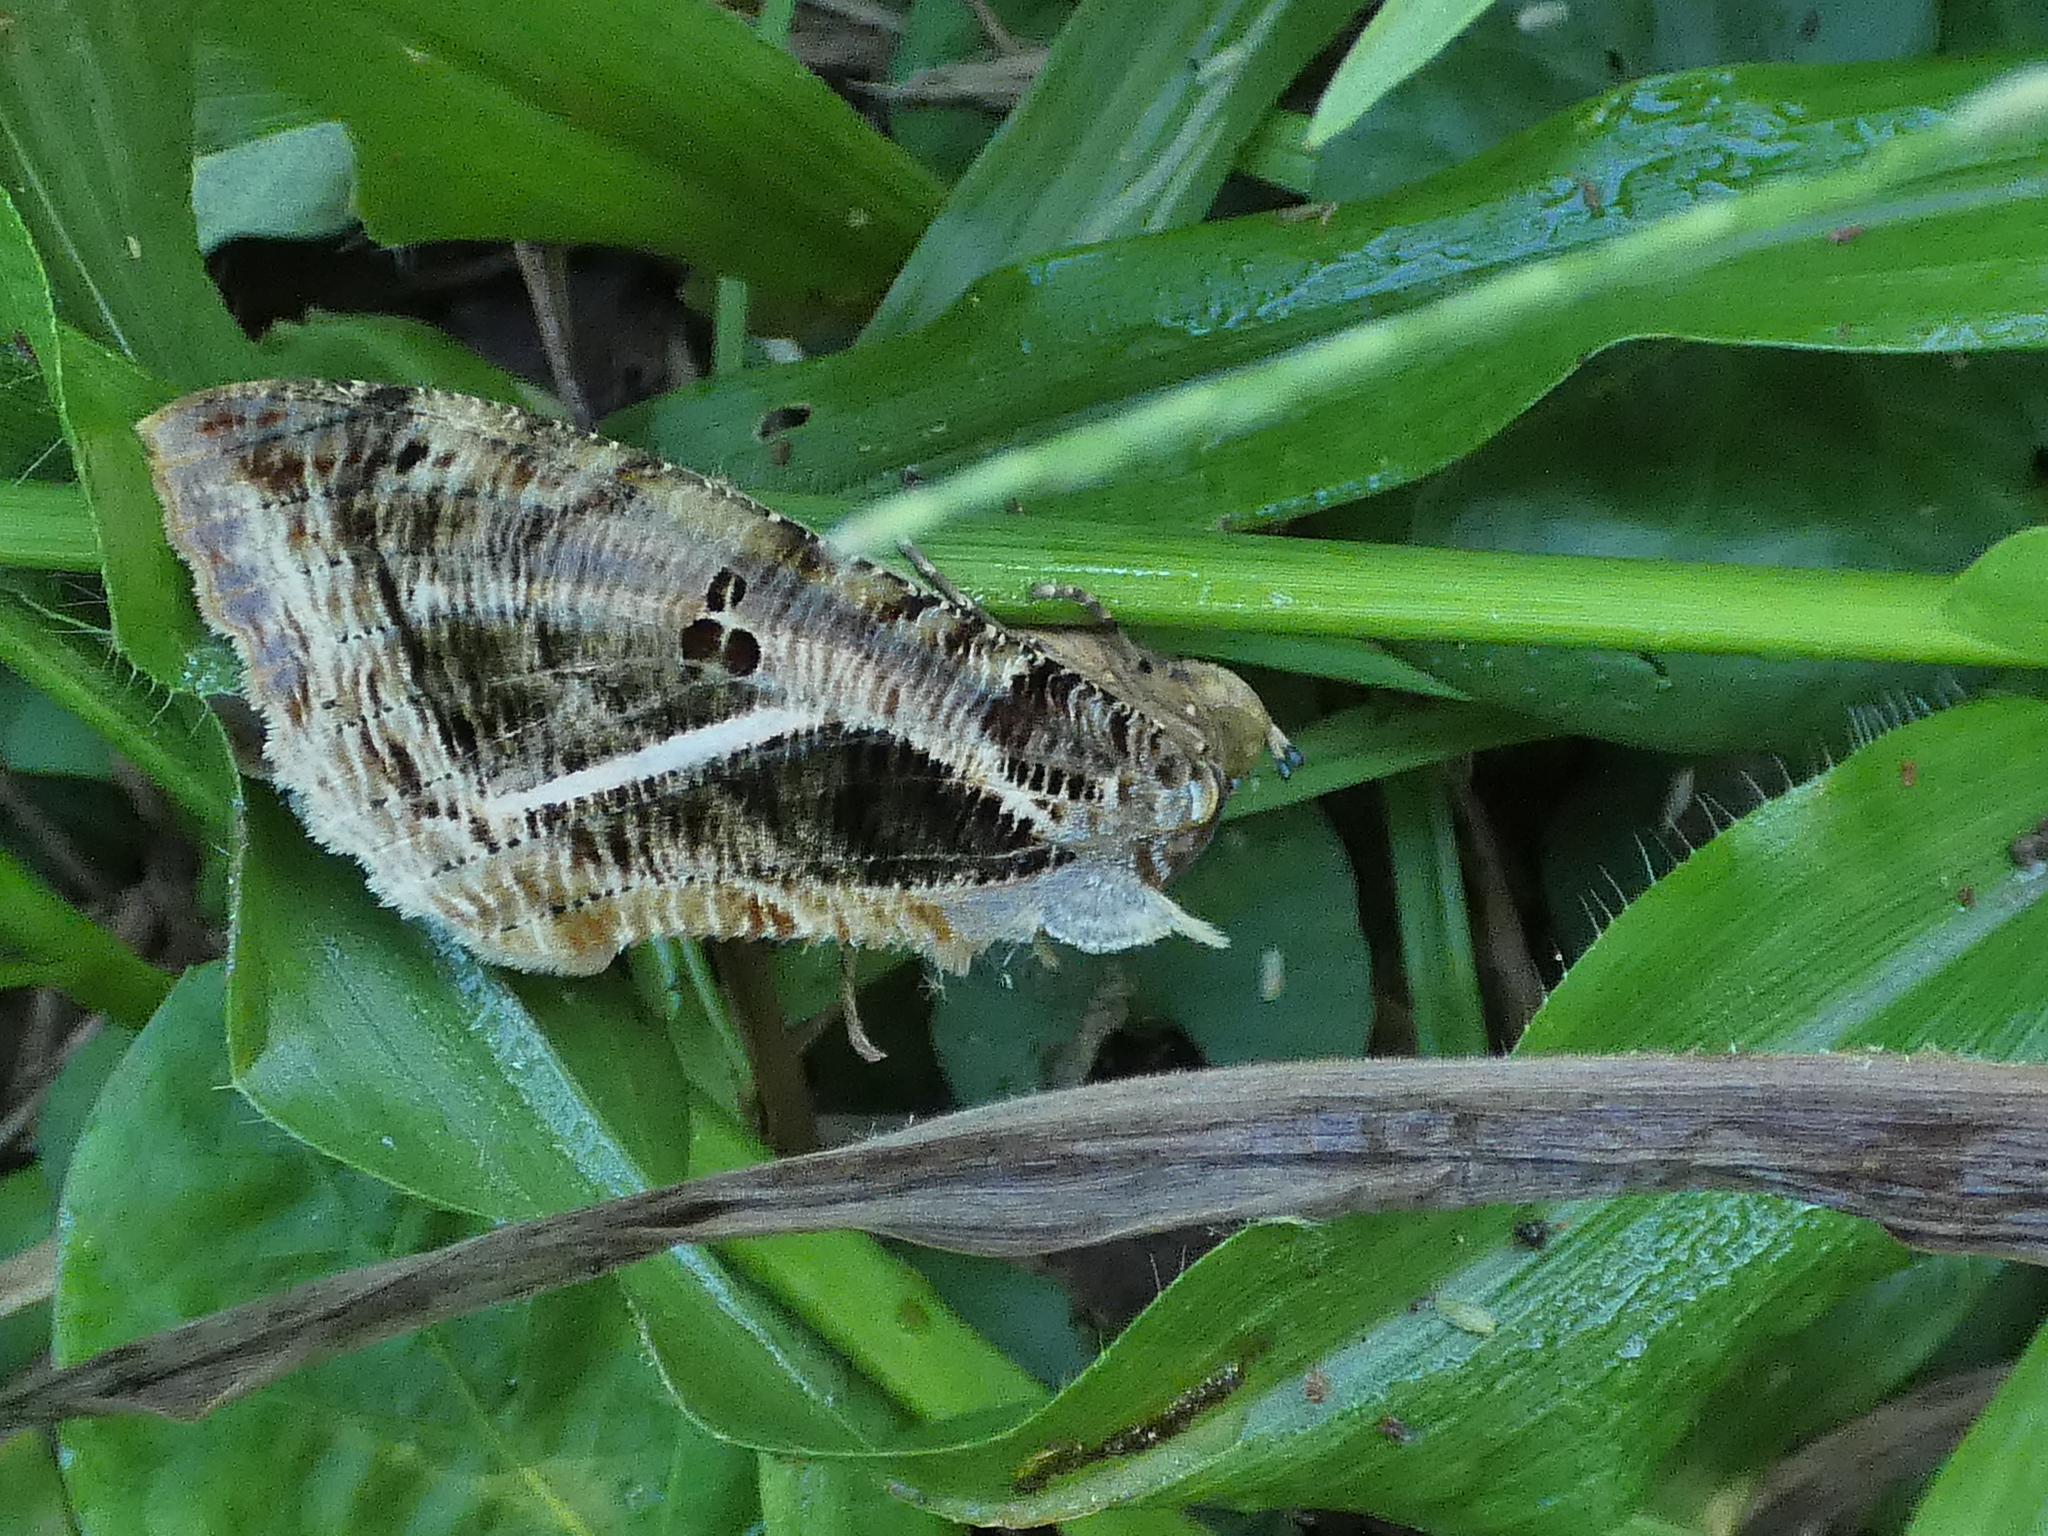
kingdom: Animalia
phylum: Arthropoda
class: Insecta
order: Lepidoptera
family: Erebidae
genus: Eudocima
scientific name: Eudocima apta
